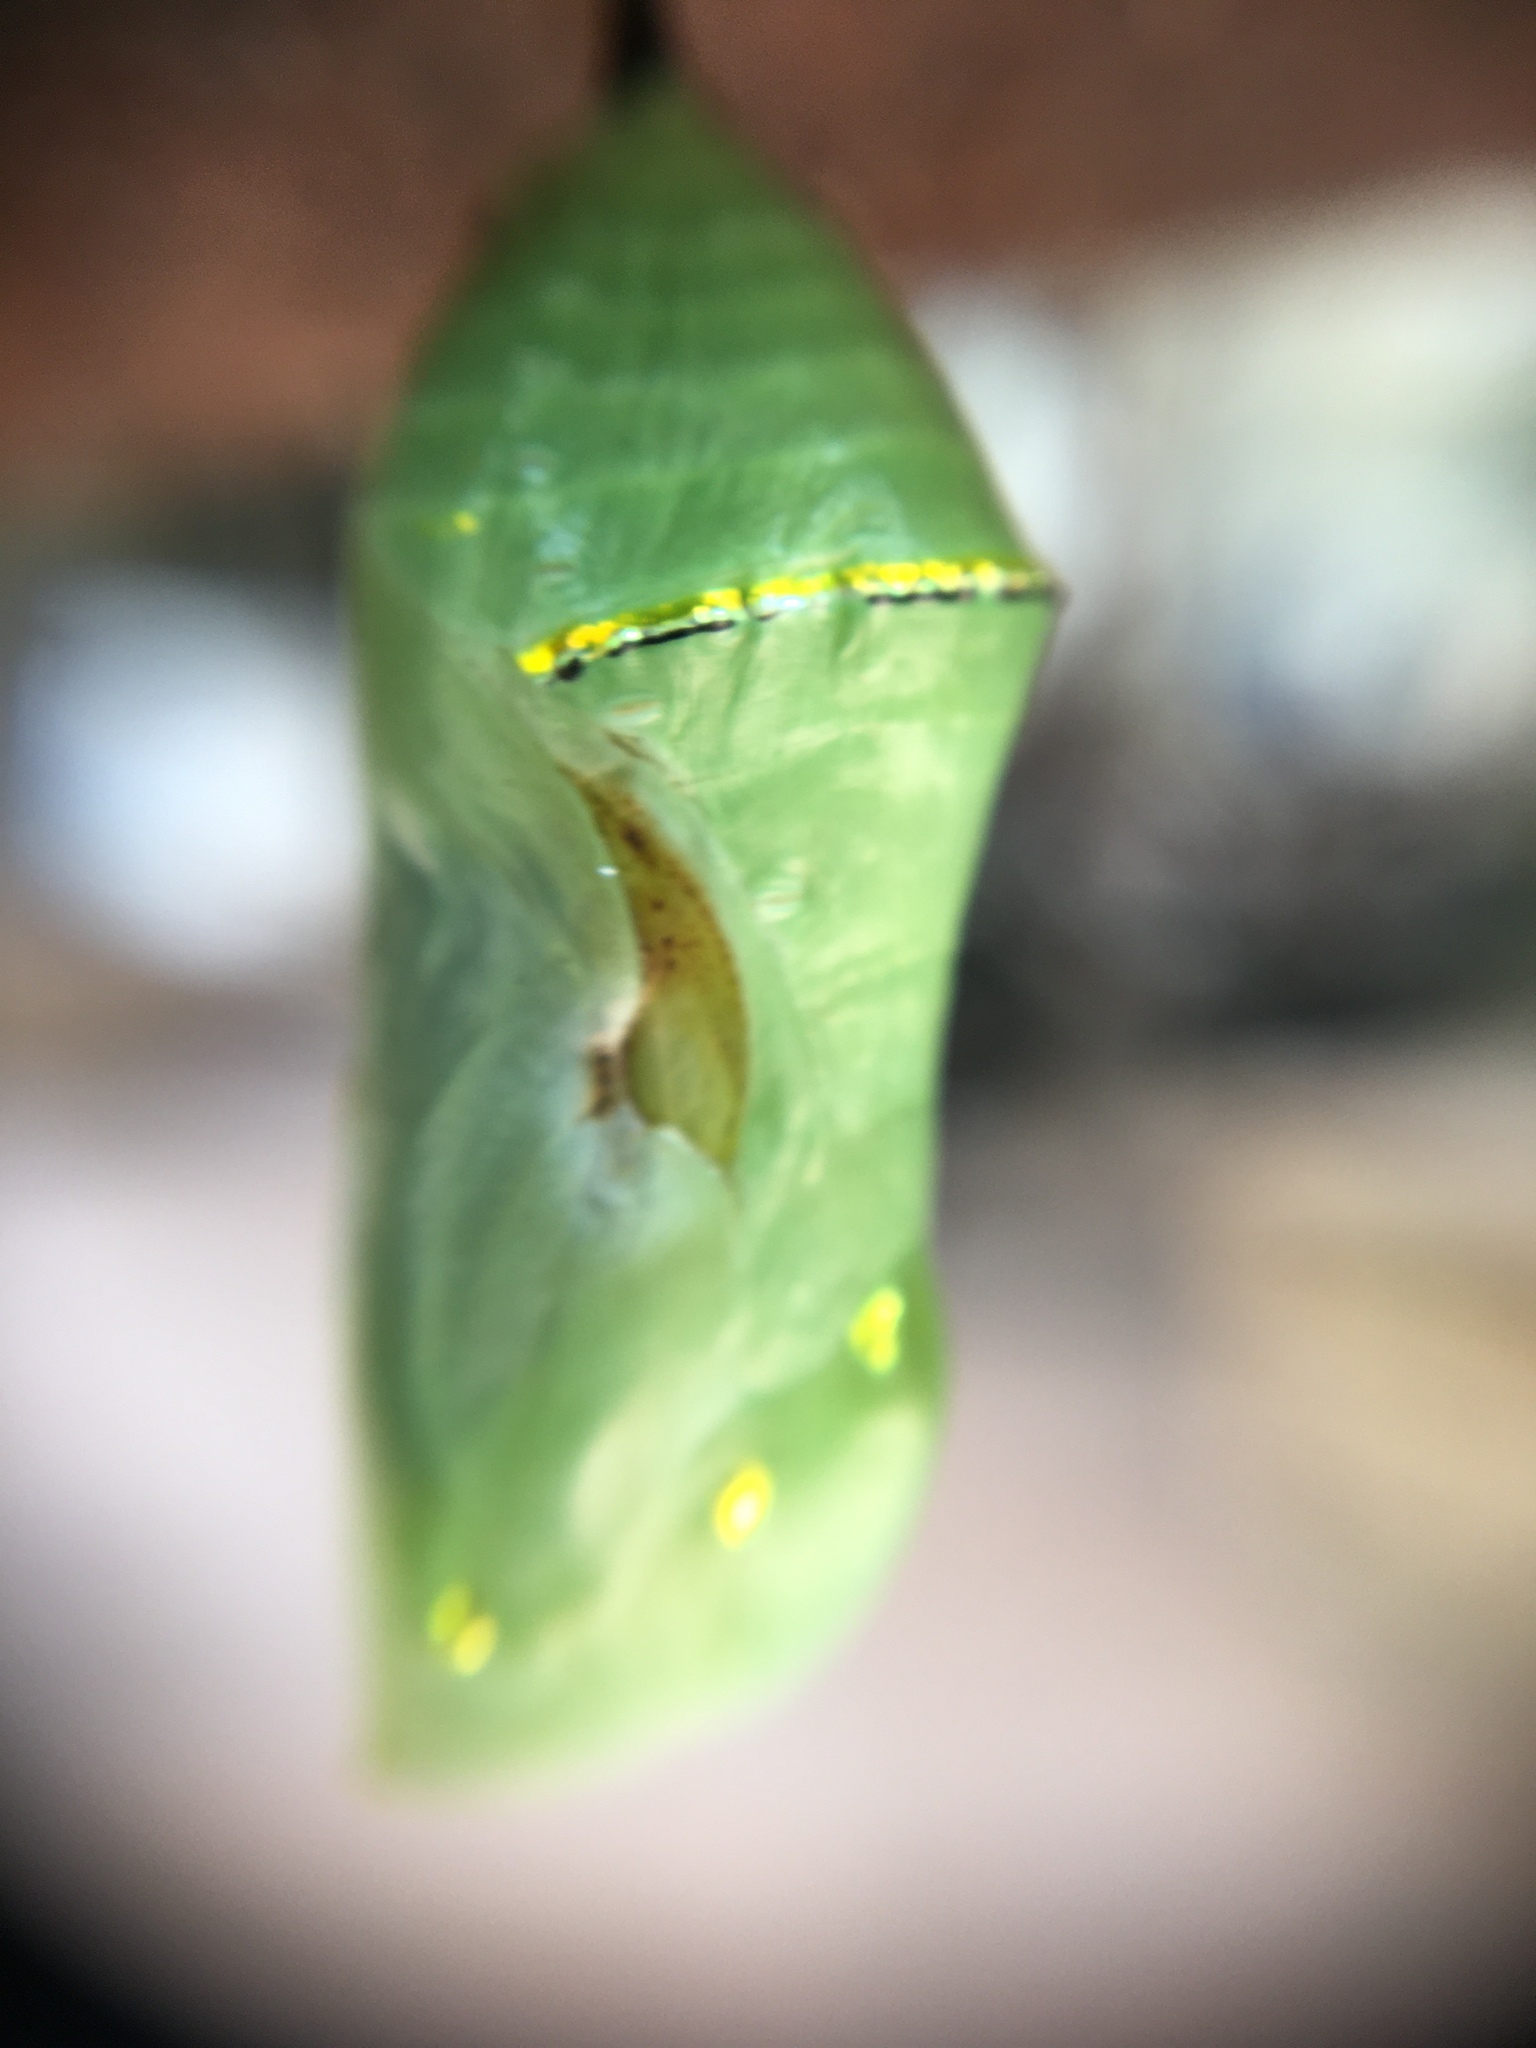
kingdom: Animalia
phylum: Arthropoda
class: Insecta
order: Lepidoptera
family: Nymphalidae
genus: Danaus
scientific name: Danaus plexippus
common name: Monarch
